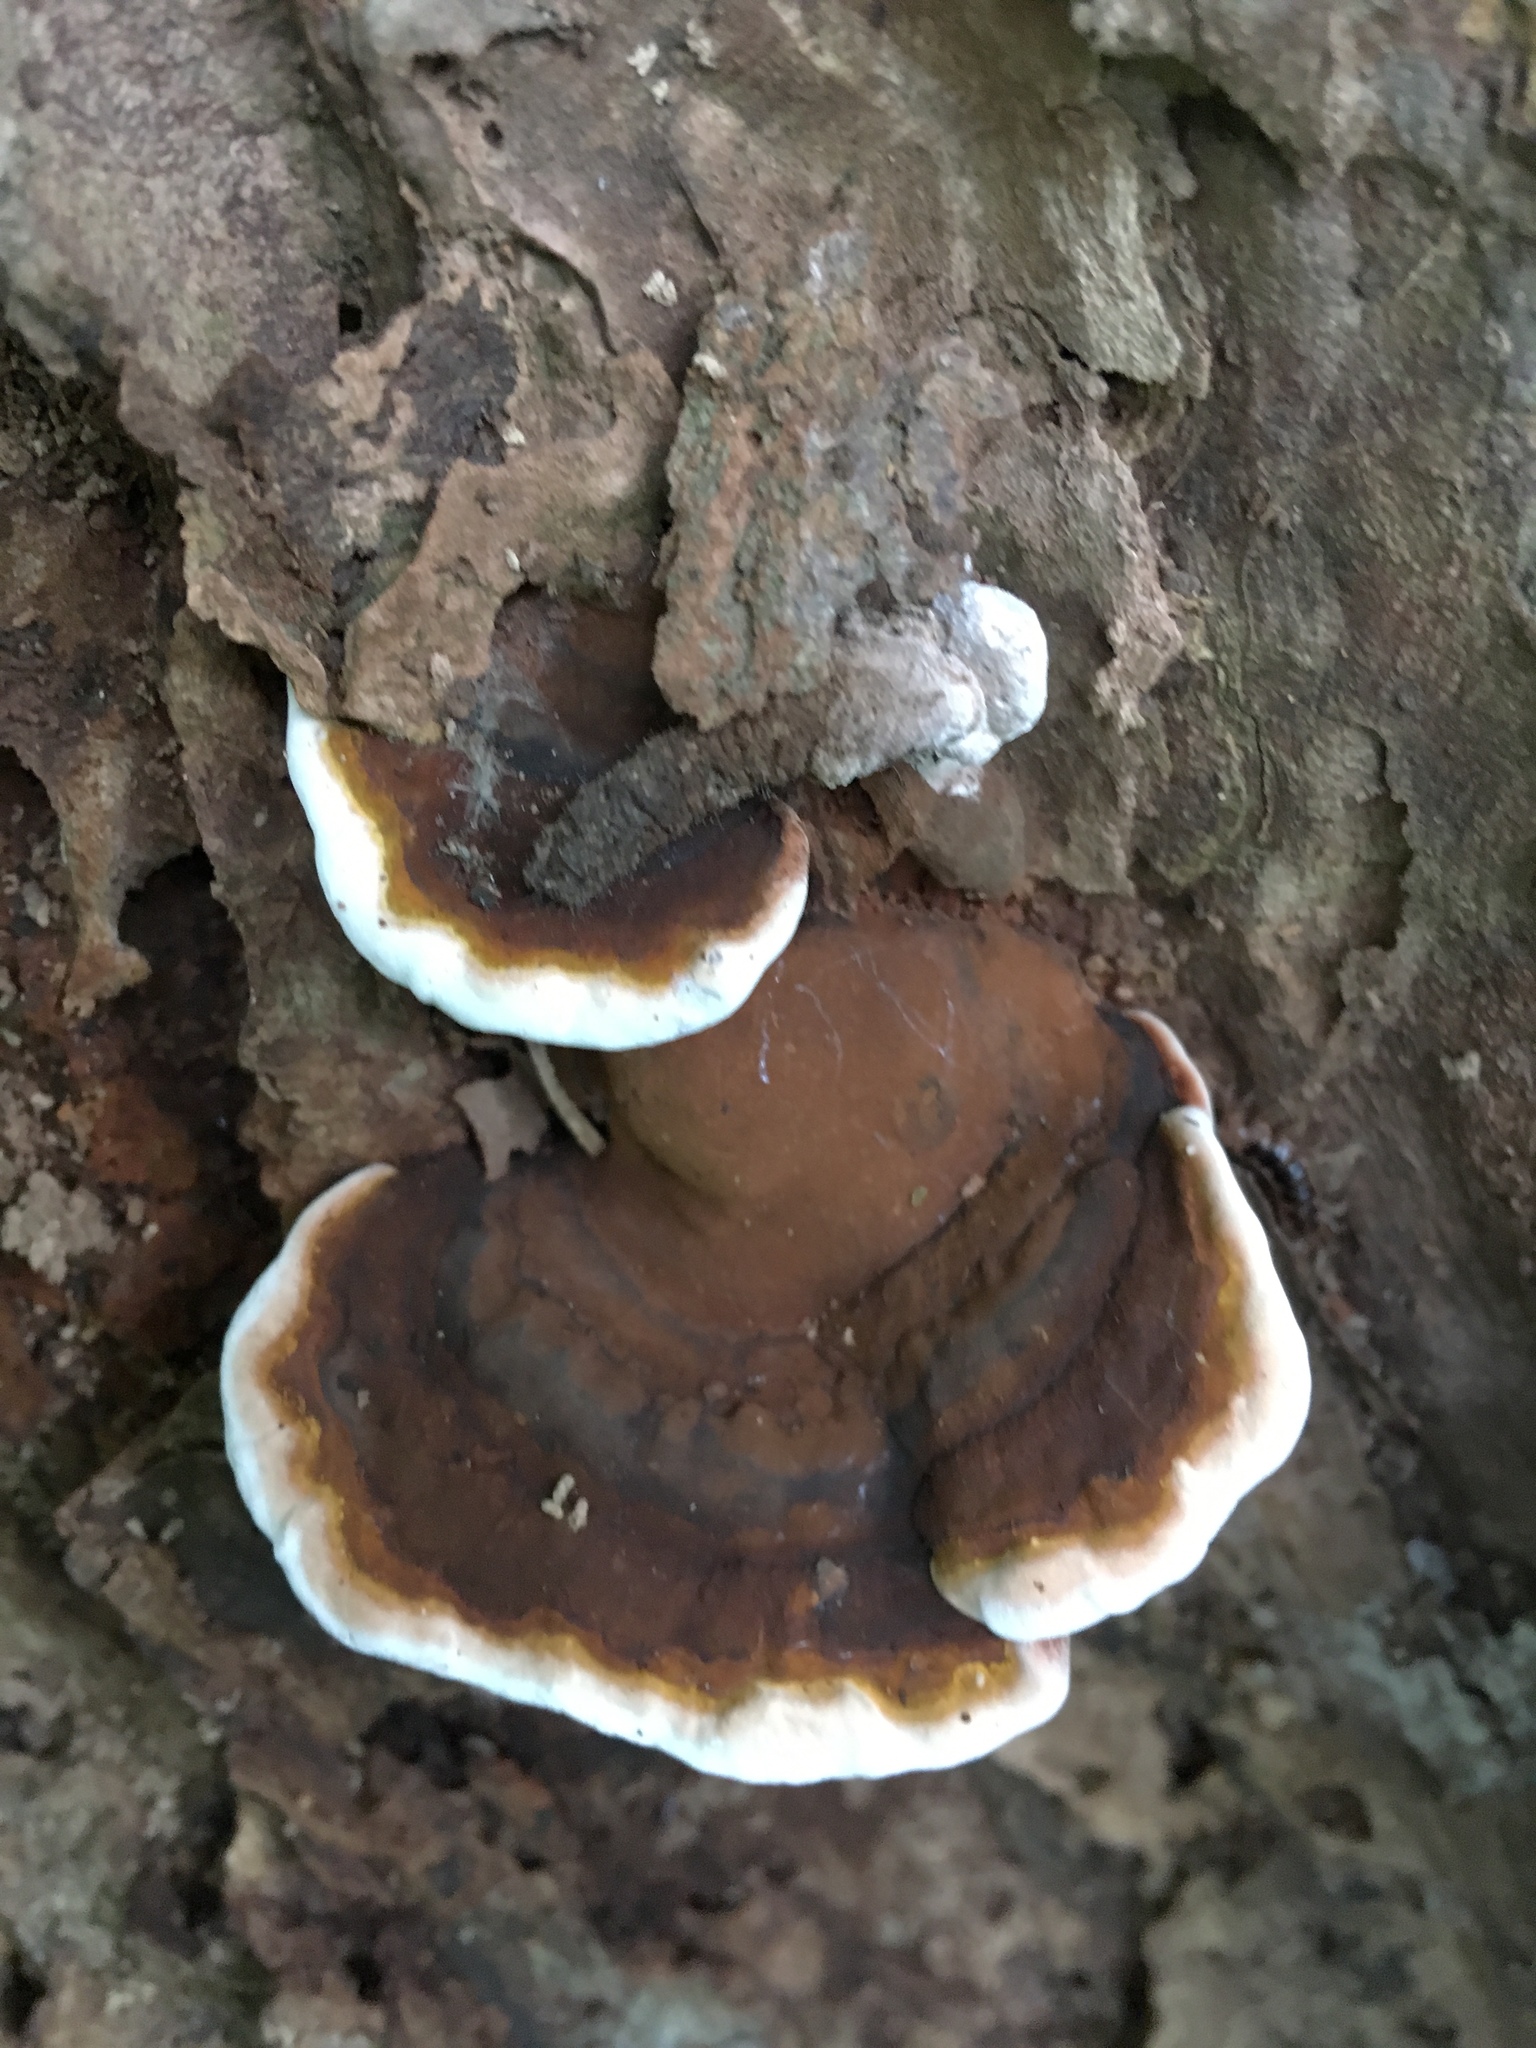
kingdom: Fungi
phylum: Basidiomycota
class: Agaricomycetes
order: Polyporales
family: Polyporaceae
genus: Ganoderma
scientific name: Ganoderma lobatum
